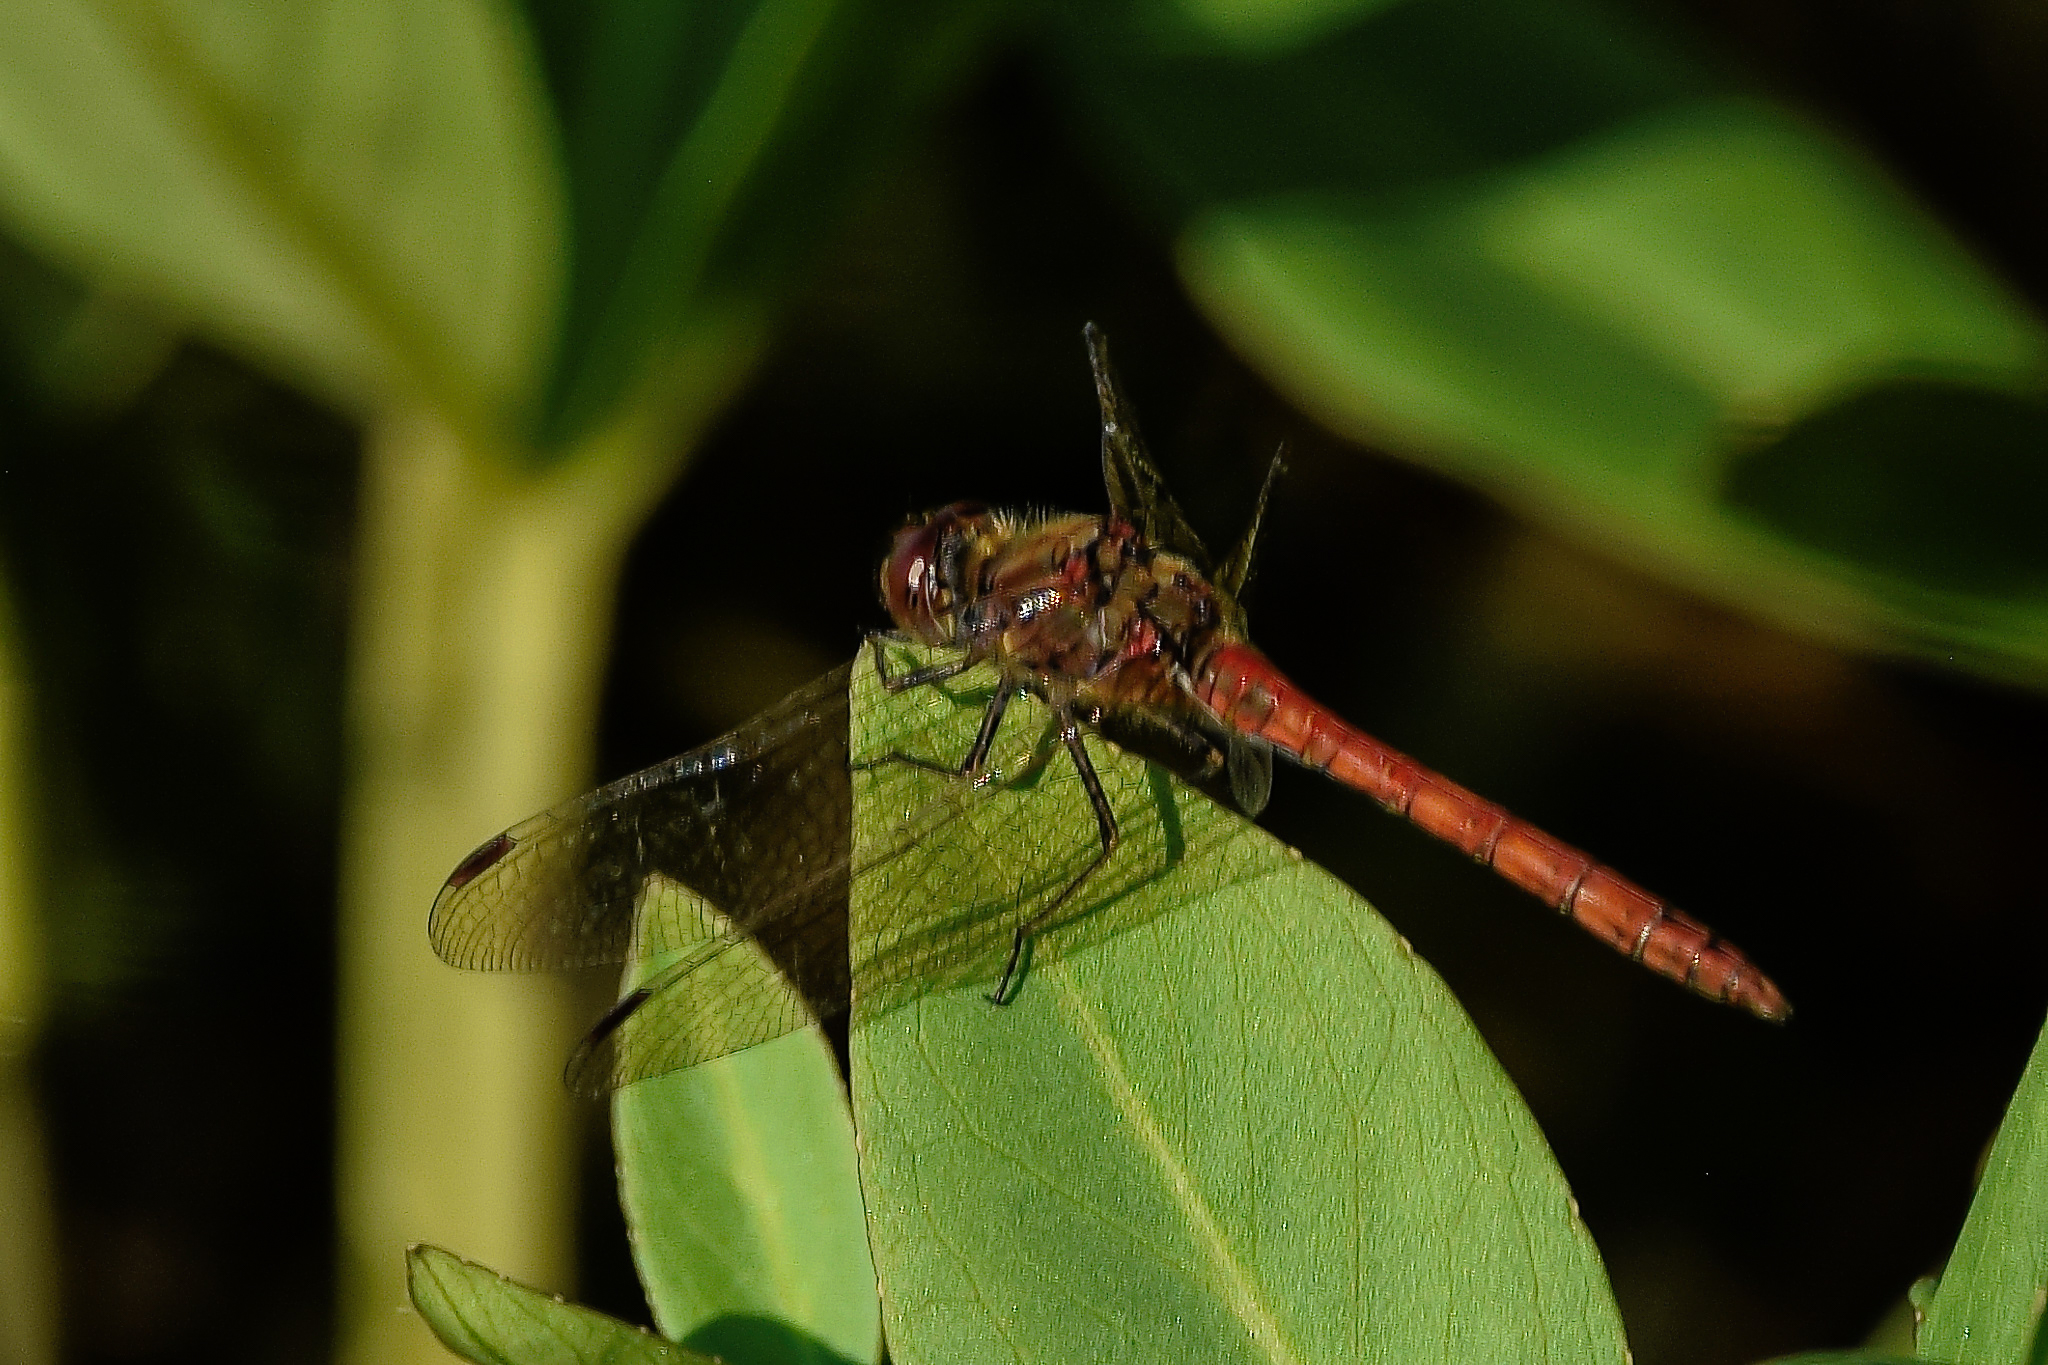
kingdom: Animalia
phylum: Arthropoda
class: Insecta
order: Odonata
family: Libellulidae
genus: Sympetrum
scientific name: Sympetrum striolatum
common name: Common darter
